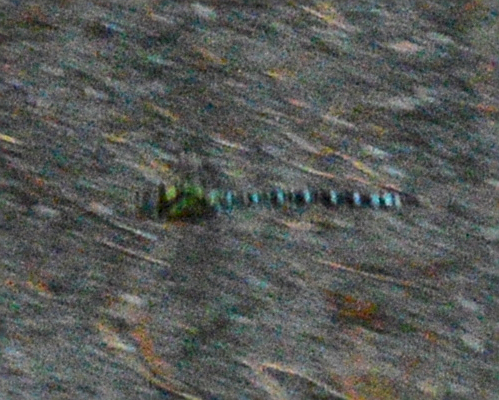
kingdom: Animalia
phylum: Arthropoda
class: Insecta
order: Odonata
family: Aeshnidae
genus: Aeshna
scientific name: Aeshna cyanea
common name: Southern hawker
